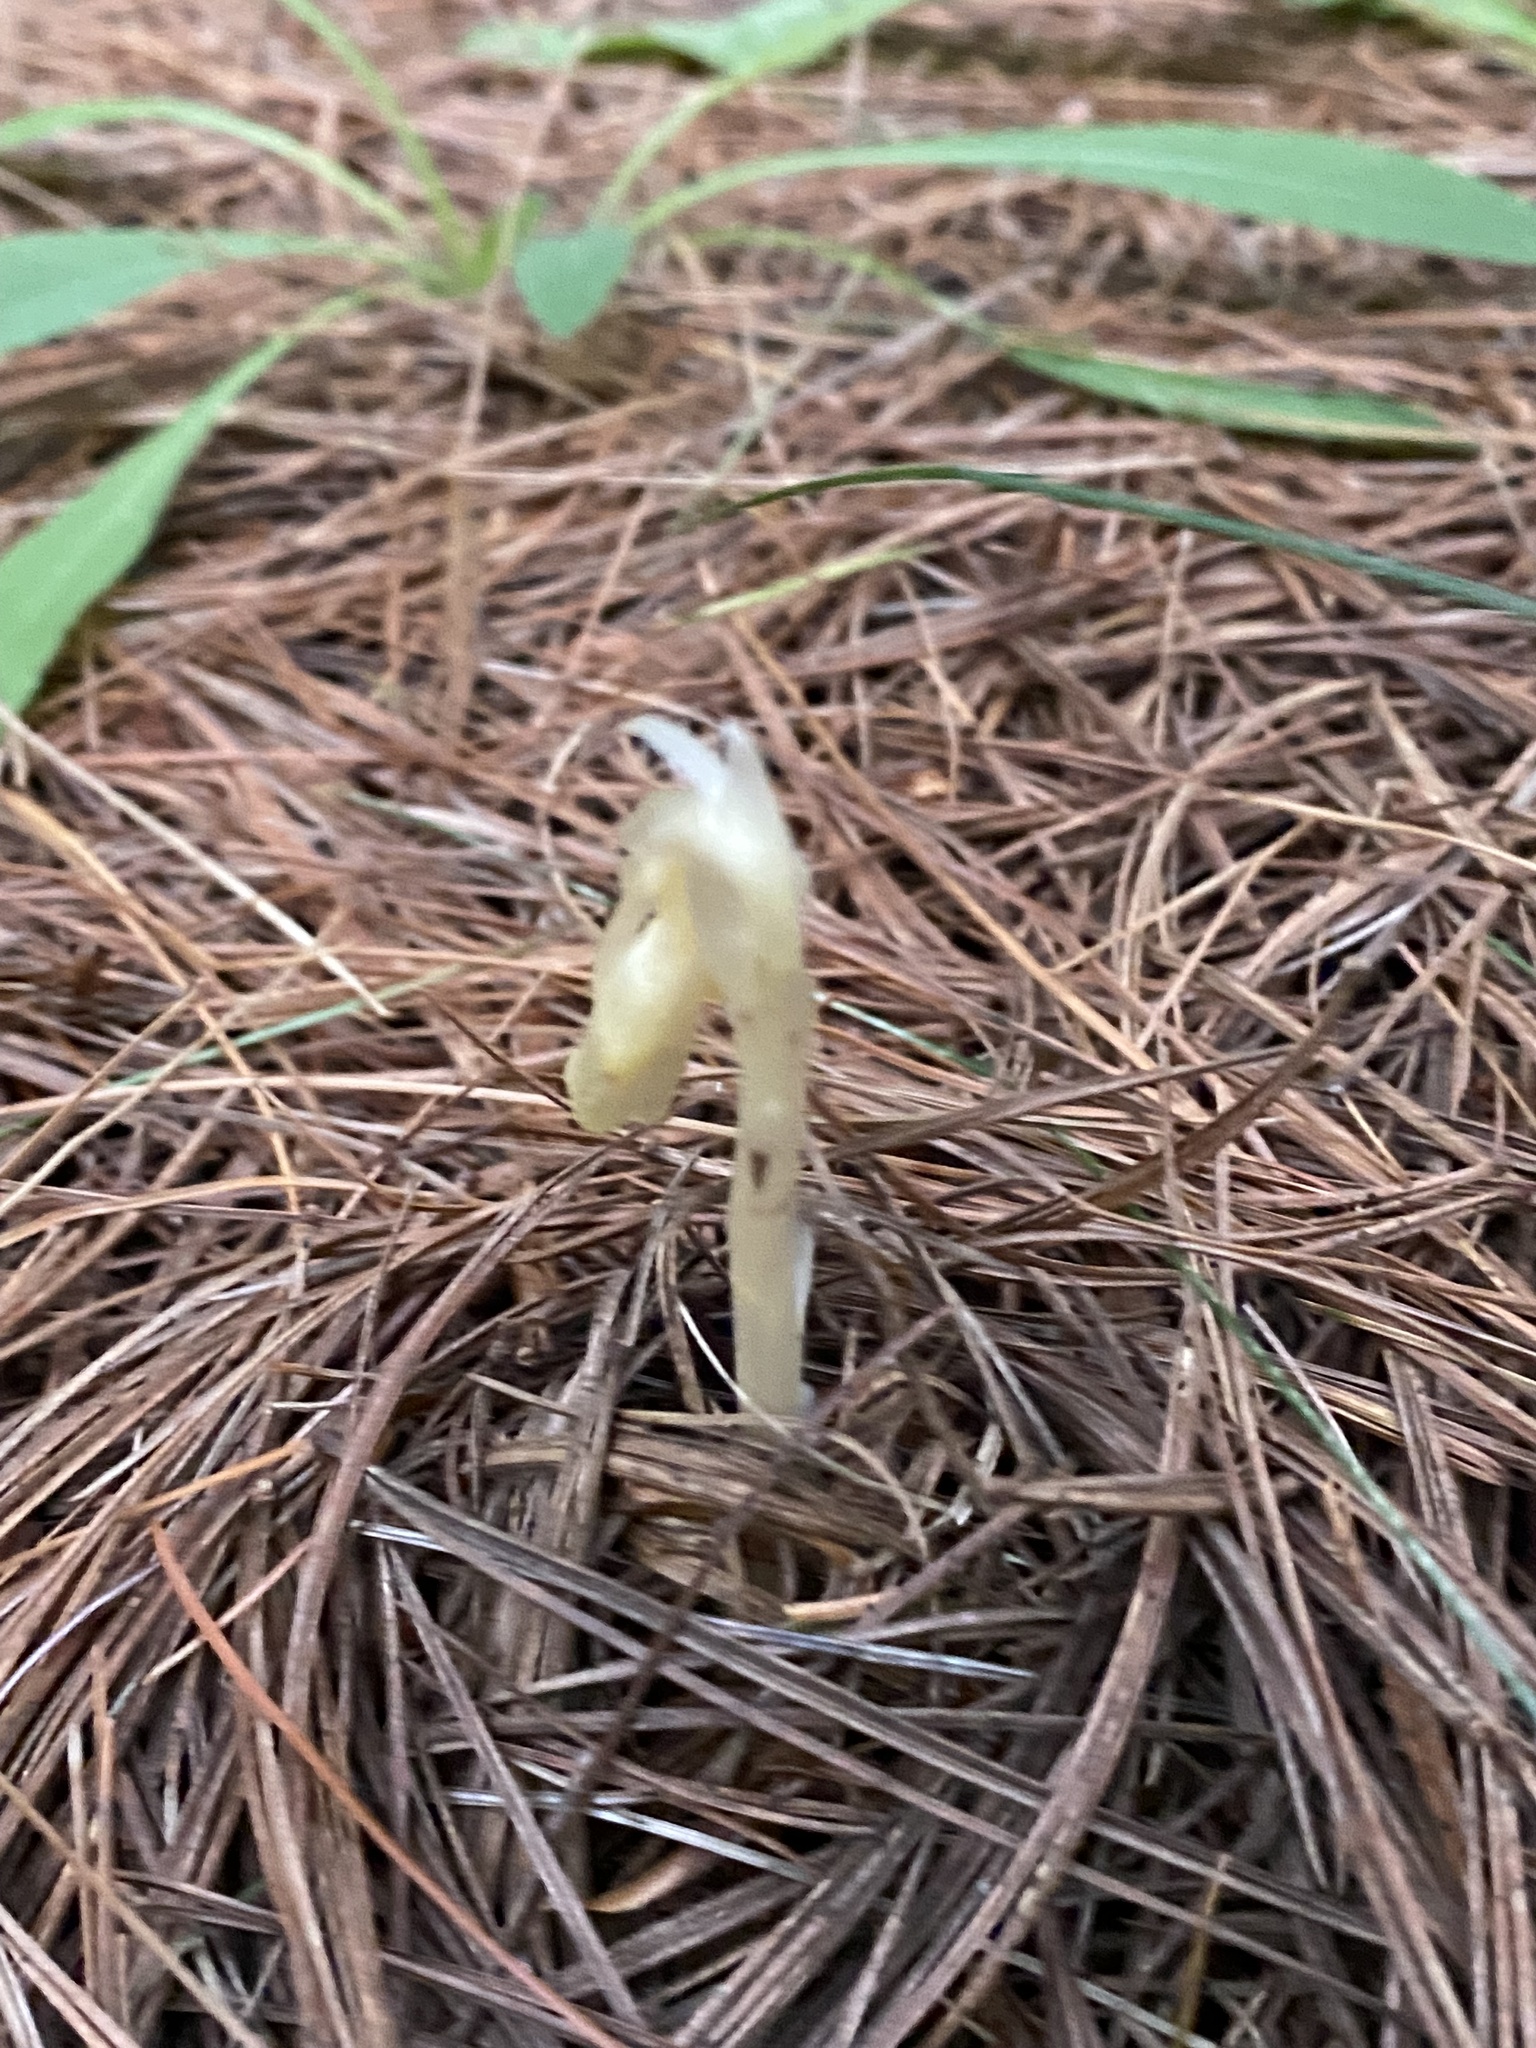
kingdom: Plantae
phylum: Tracheophyta
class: Magnoliopsida
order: Ericales
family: Ericaceae
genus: Hypopitys
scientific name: Hypopitys monotropa
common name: Yellow bird's-nest
